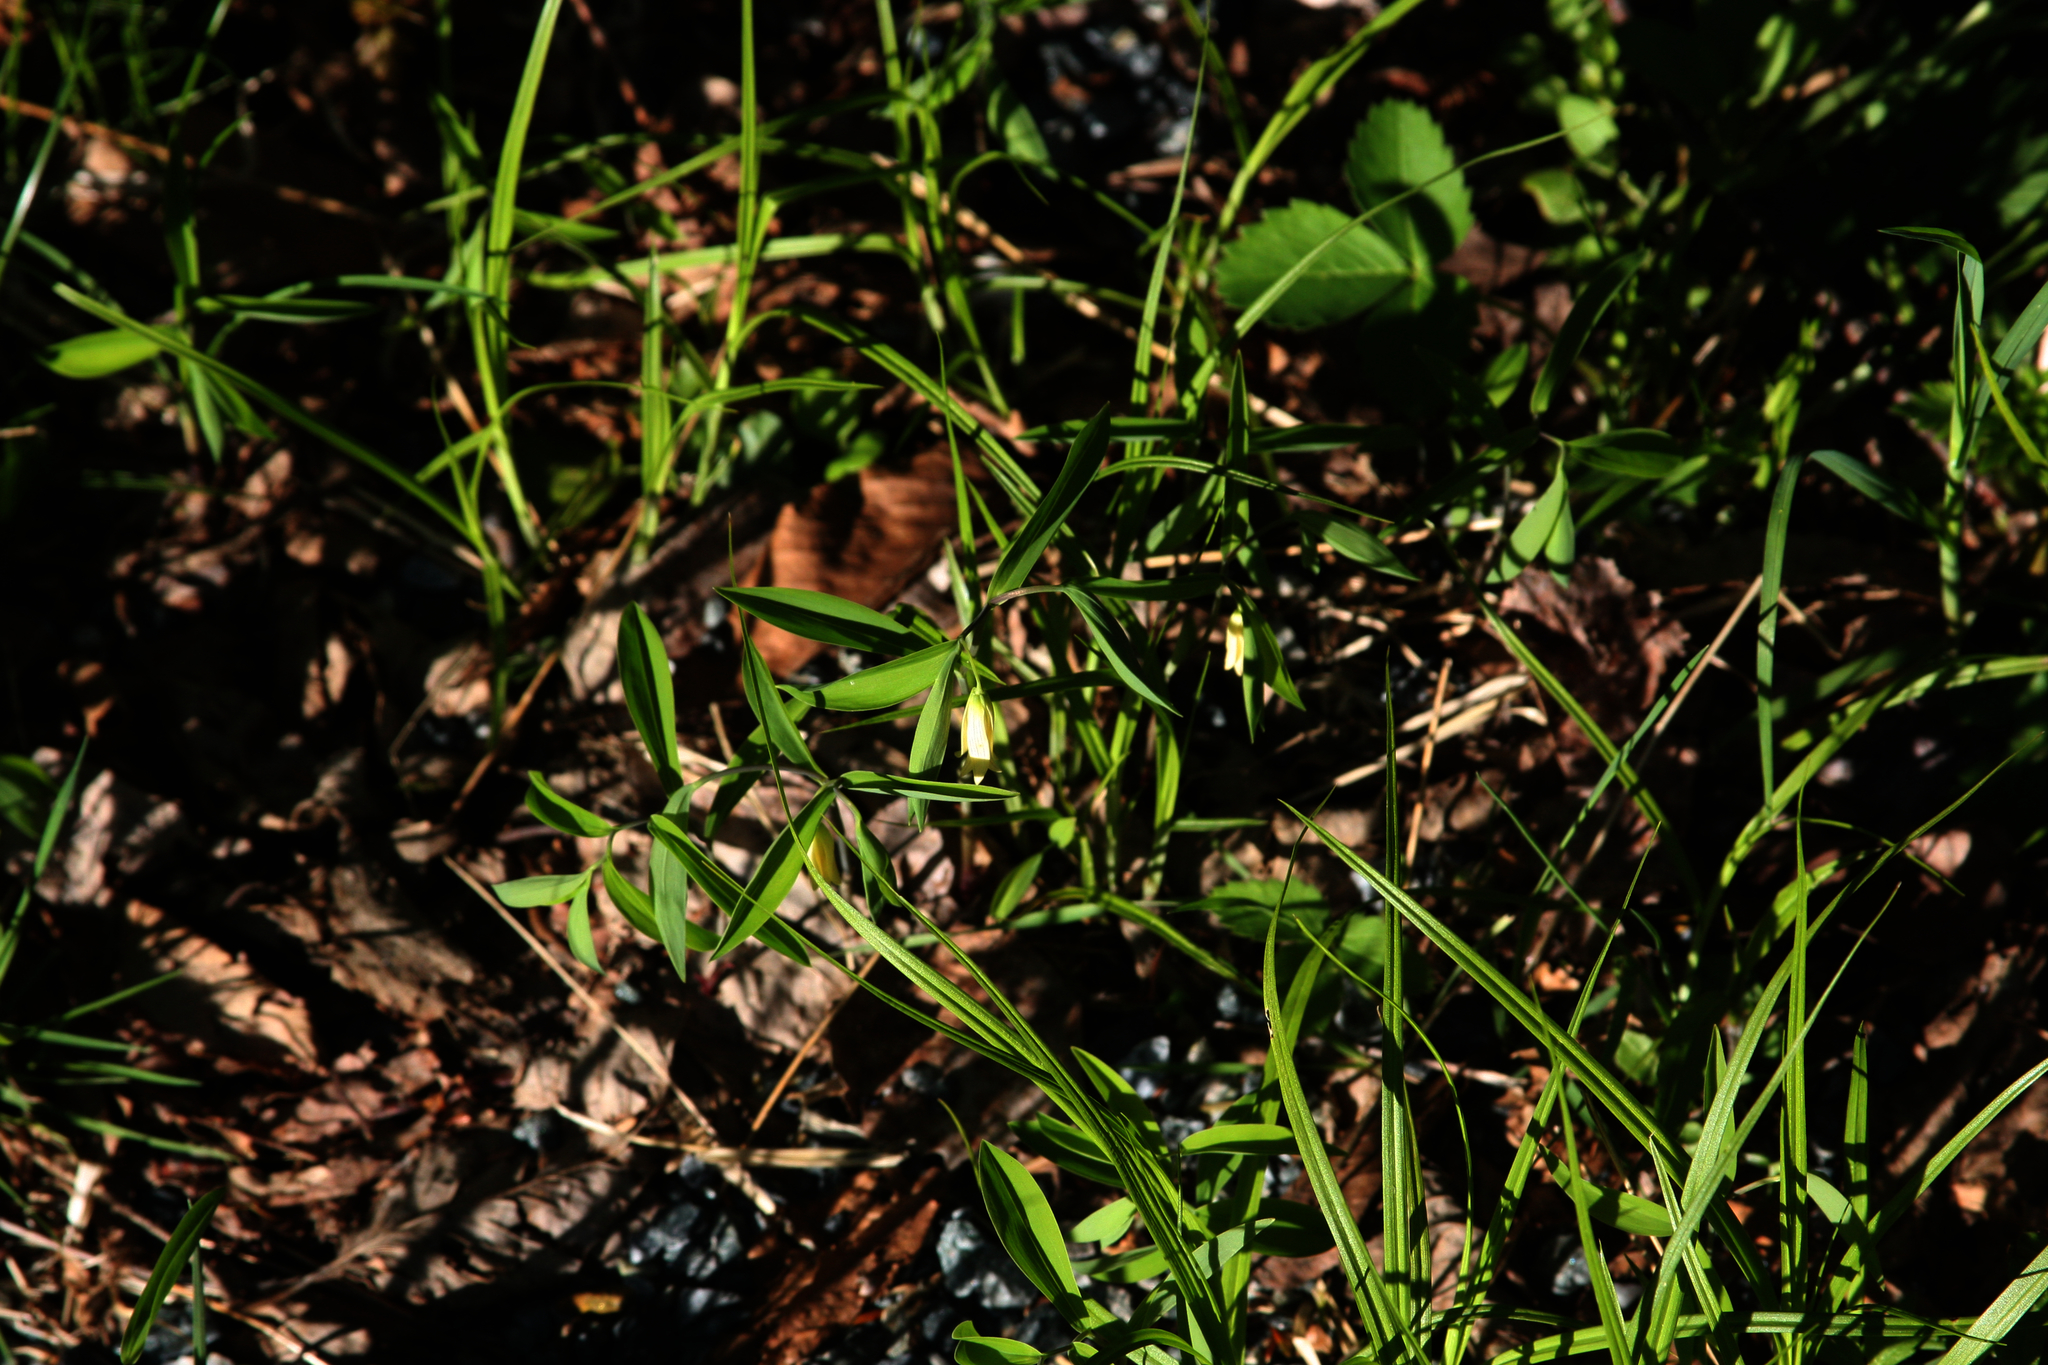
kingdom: Plantae
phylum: Tracheophyta
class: Liliopsida
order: Liliales
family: Colchicaceae
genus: Uvularia
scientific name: Uvularia sessilifolia
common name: Straw-lily
